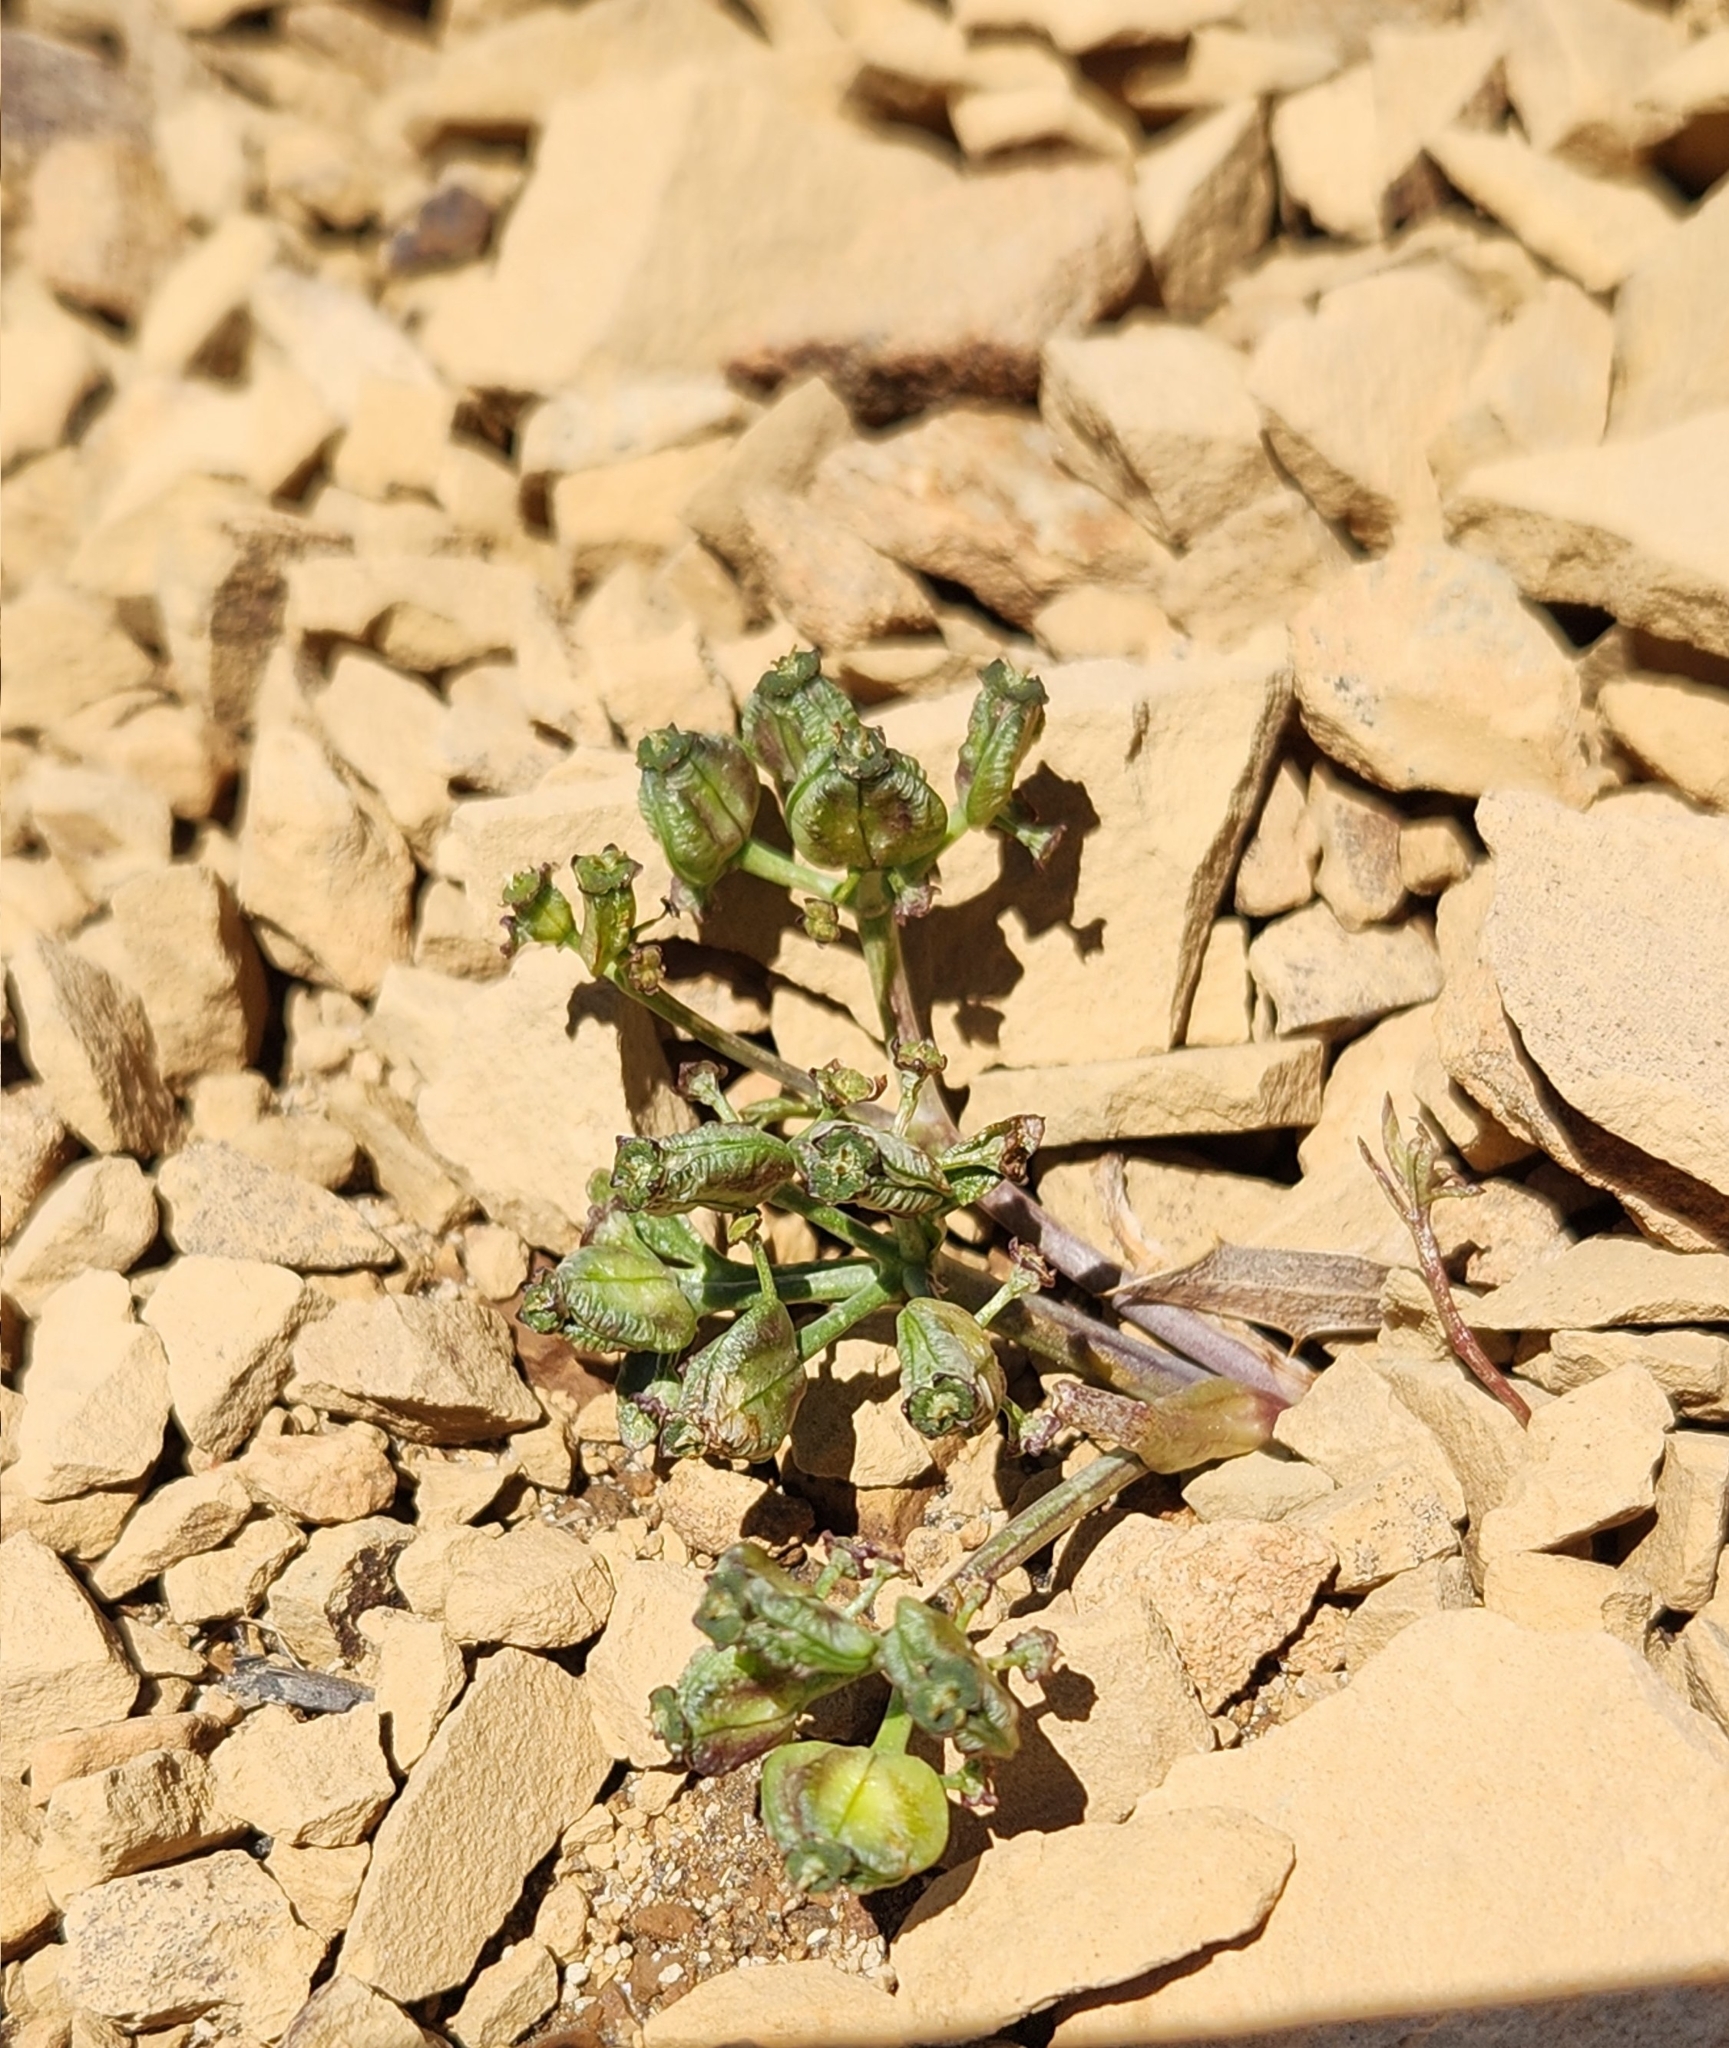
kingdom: Plantae
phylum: Tracheophyta
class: Magnoliopsida
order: Apiales
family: Apiaceae
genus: Diposis
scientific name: Diposis patagonica
